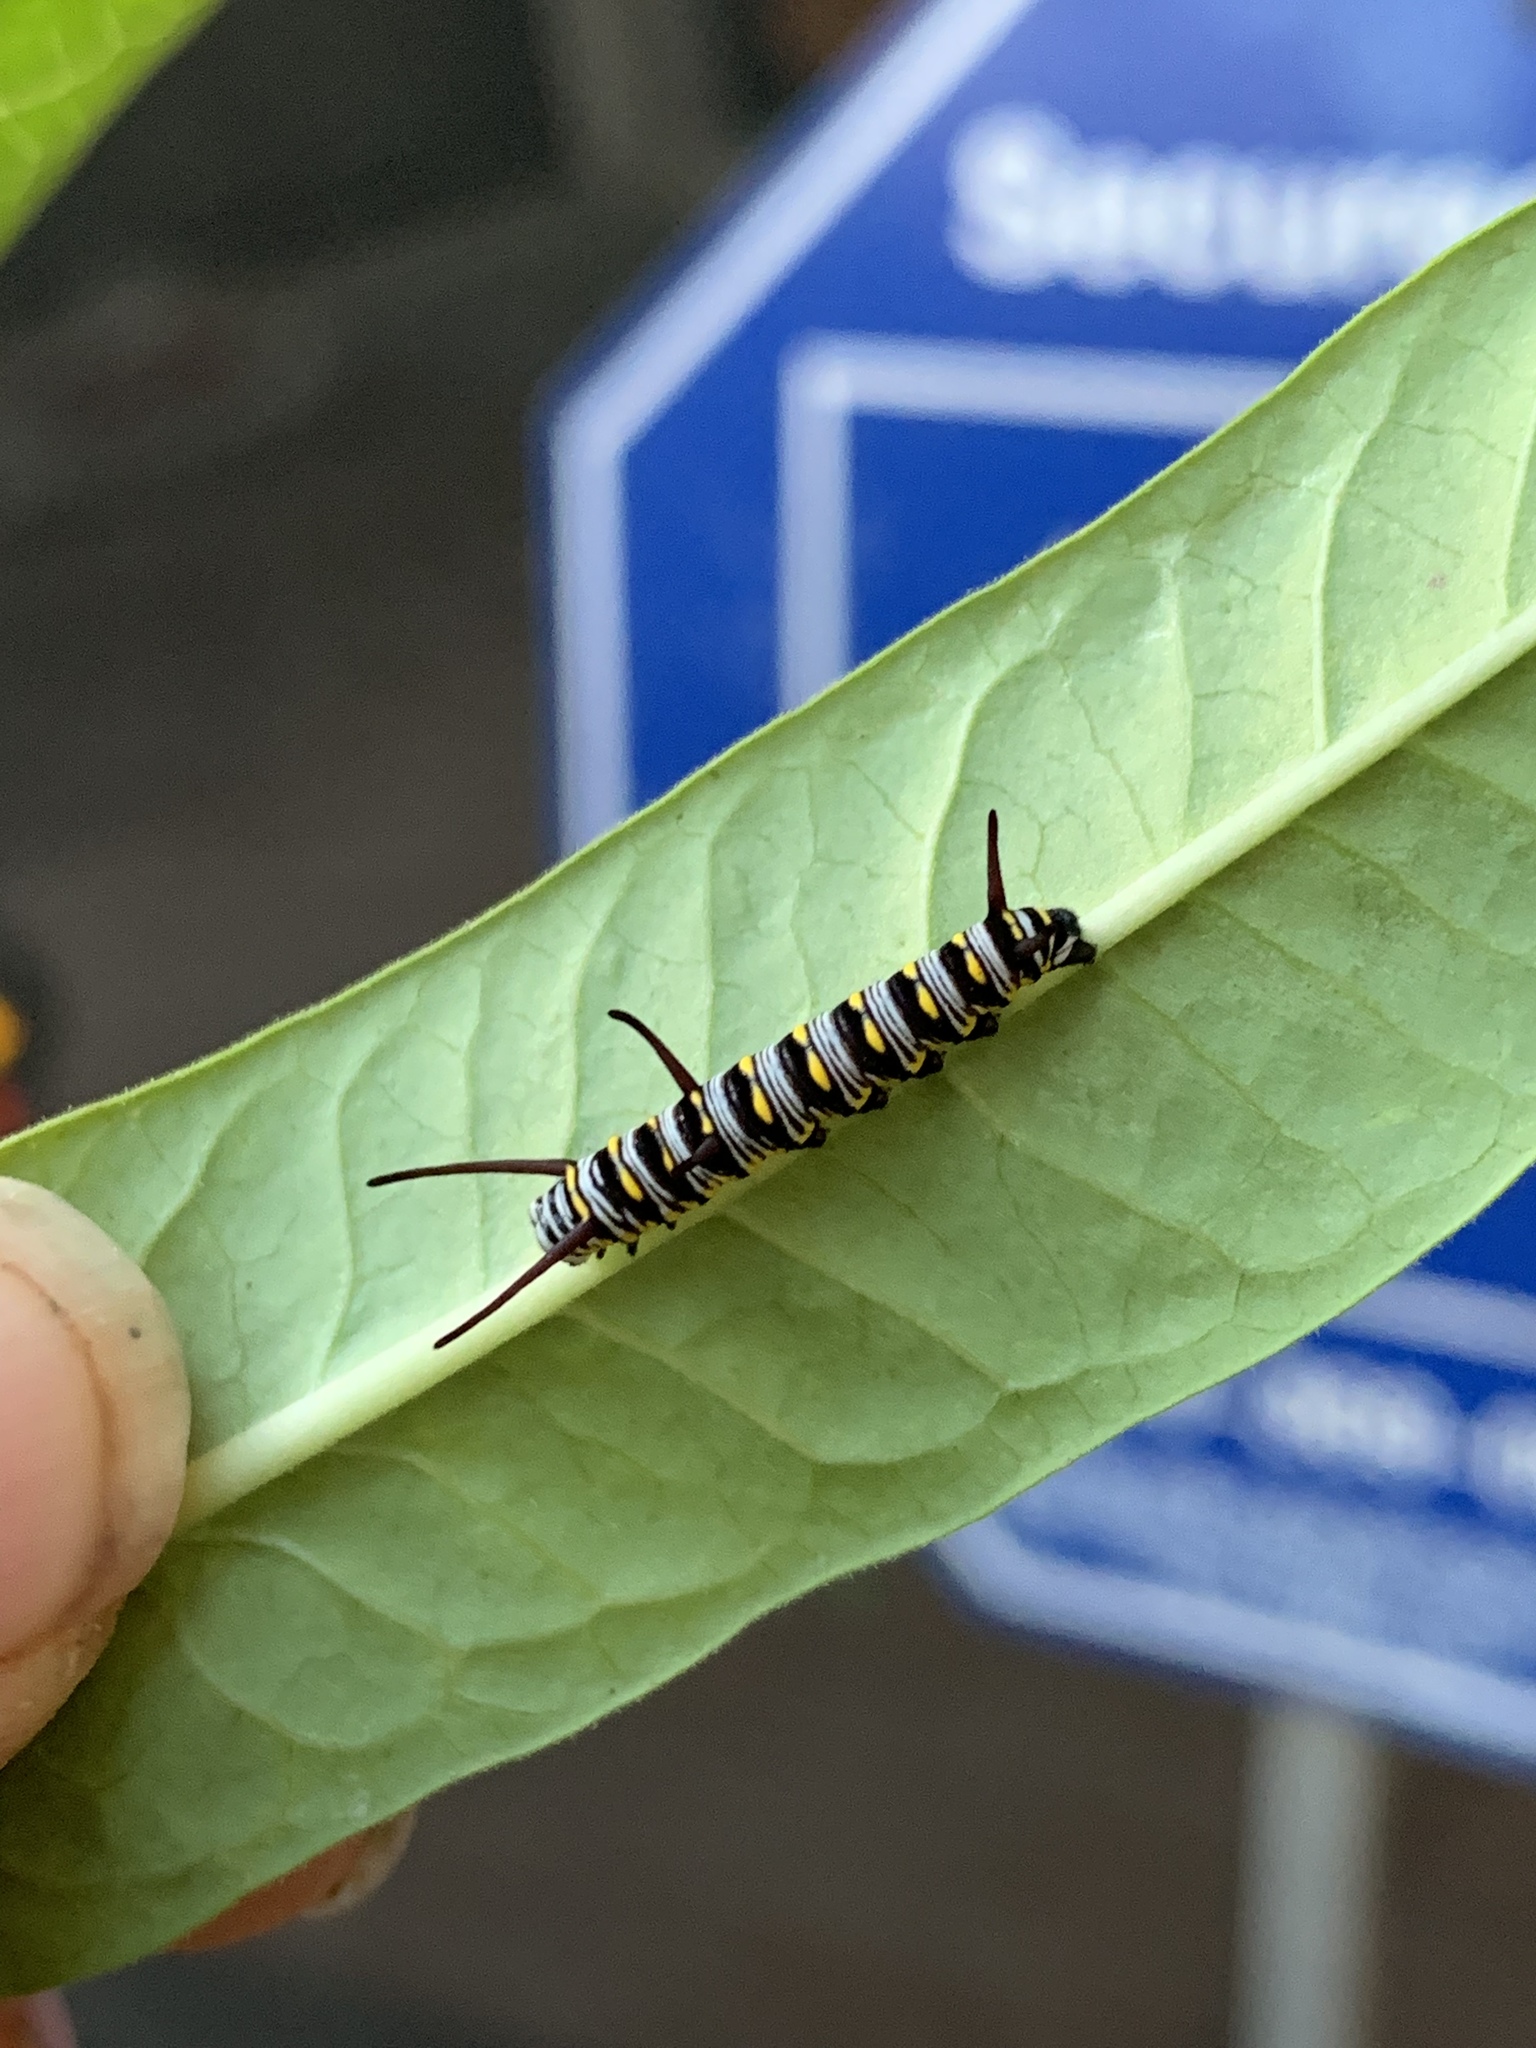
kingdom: Animalia
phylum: Arthropoda
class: Insecta
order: Lepidoptera
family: Nymphalidae
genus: Danaus
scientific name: Danaus gilippus
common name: Queen
